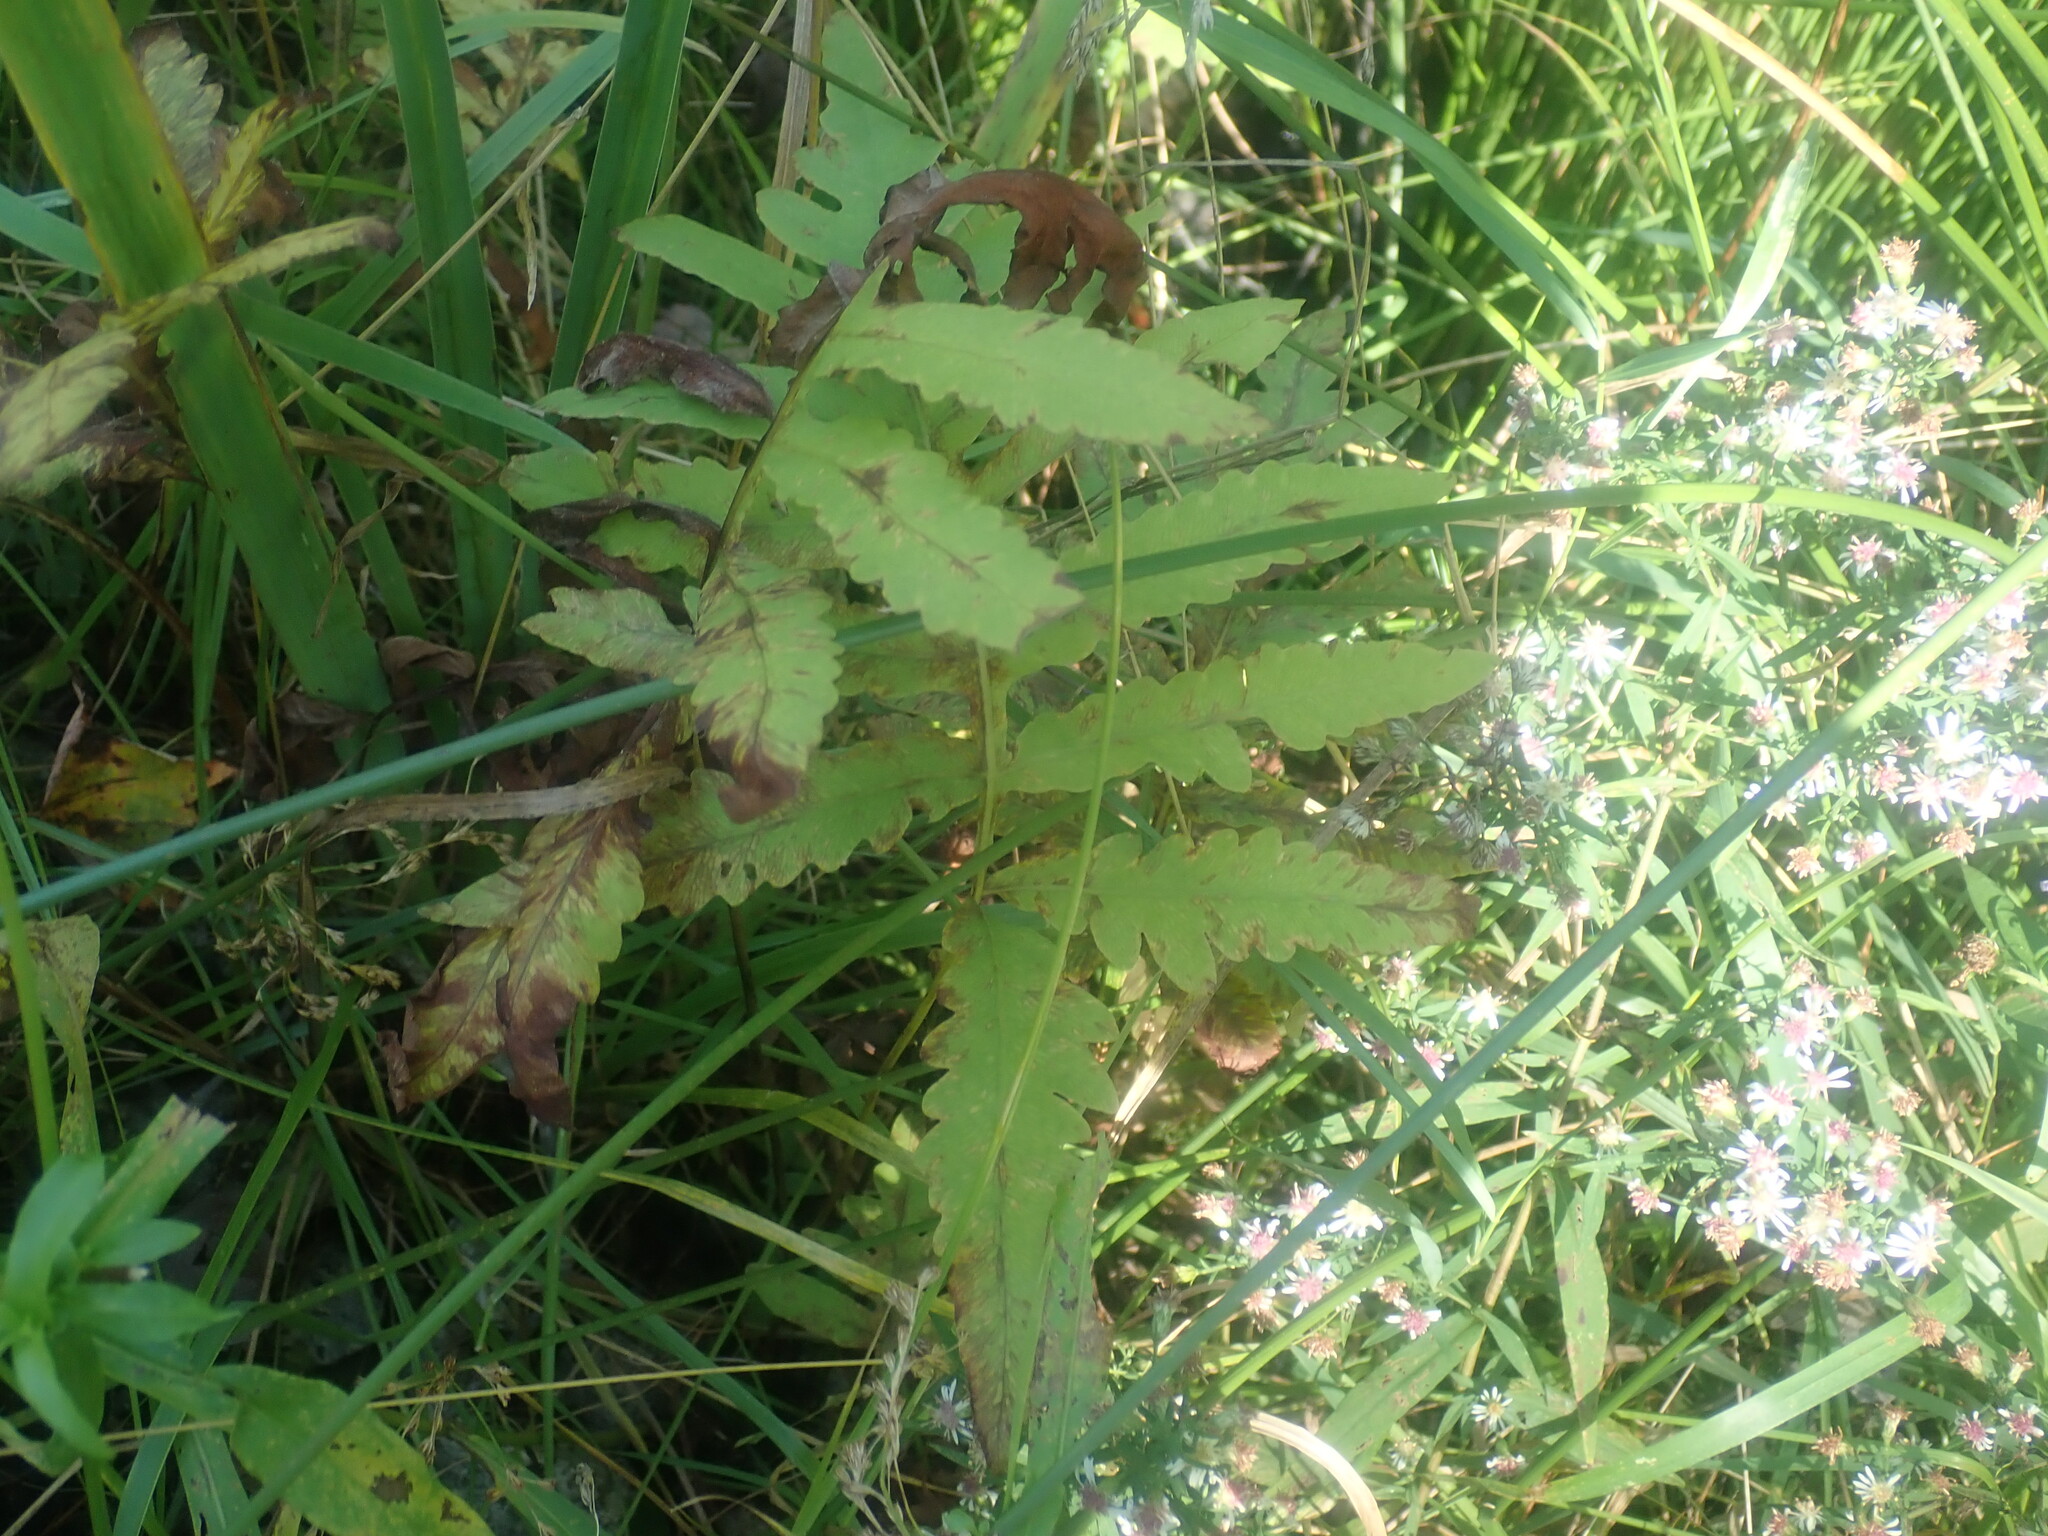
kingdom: Plantae
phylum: Tracheophyta
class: Polypodiopsida
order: Polypodiales
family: Onocleaceae
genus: Onoclea
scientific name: Onoclea sensibilis
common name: Sensitive fern
